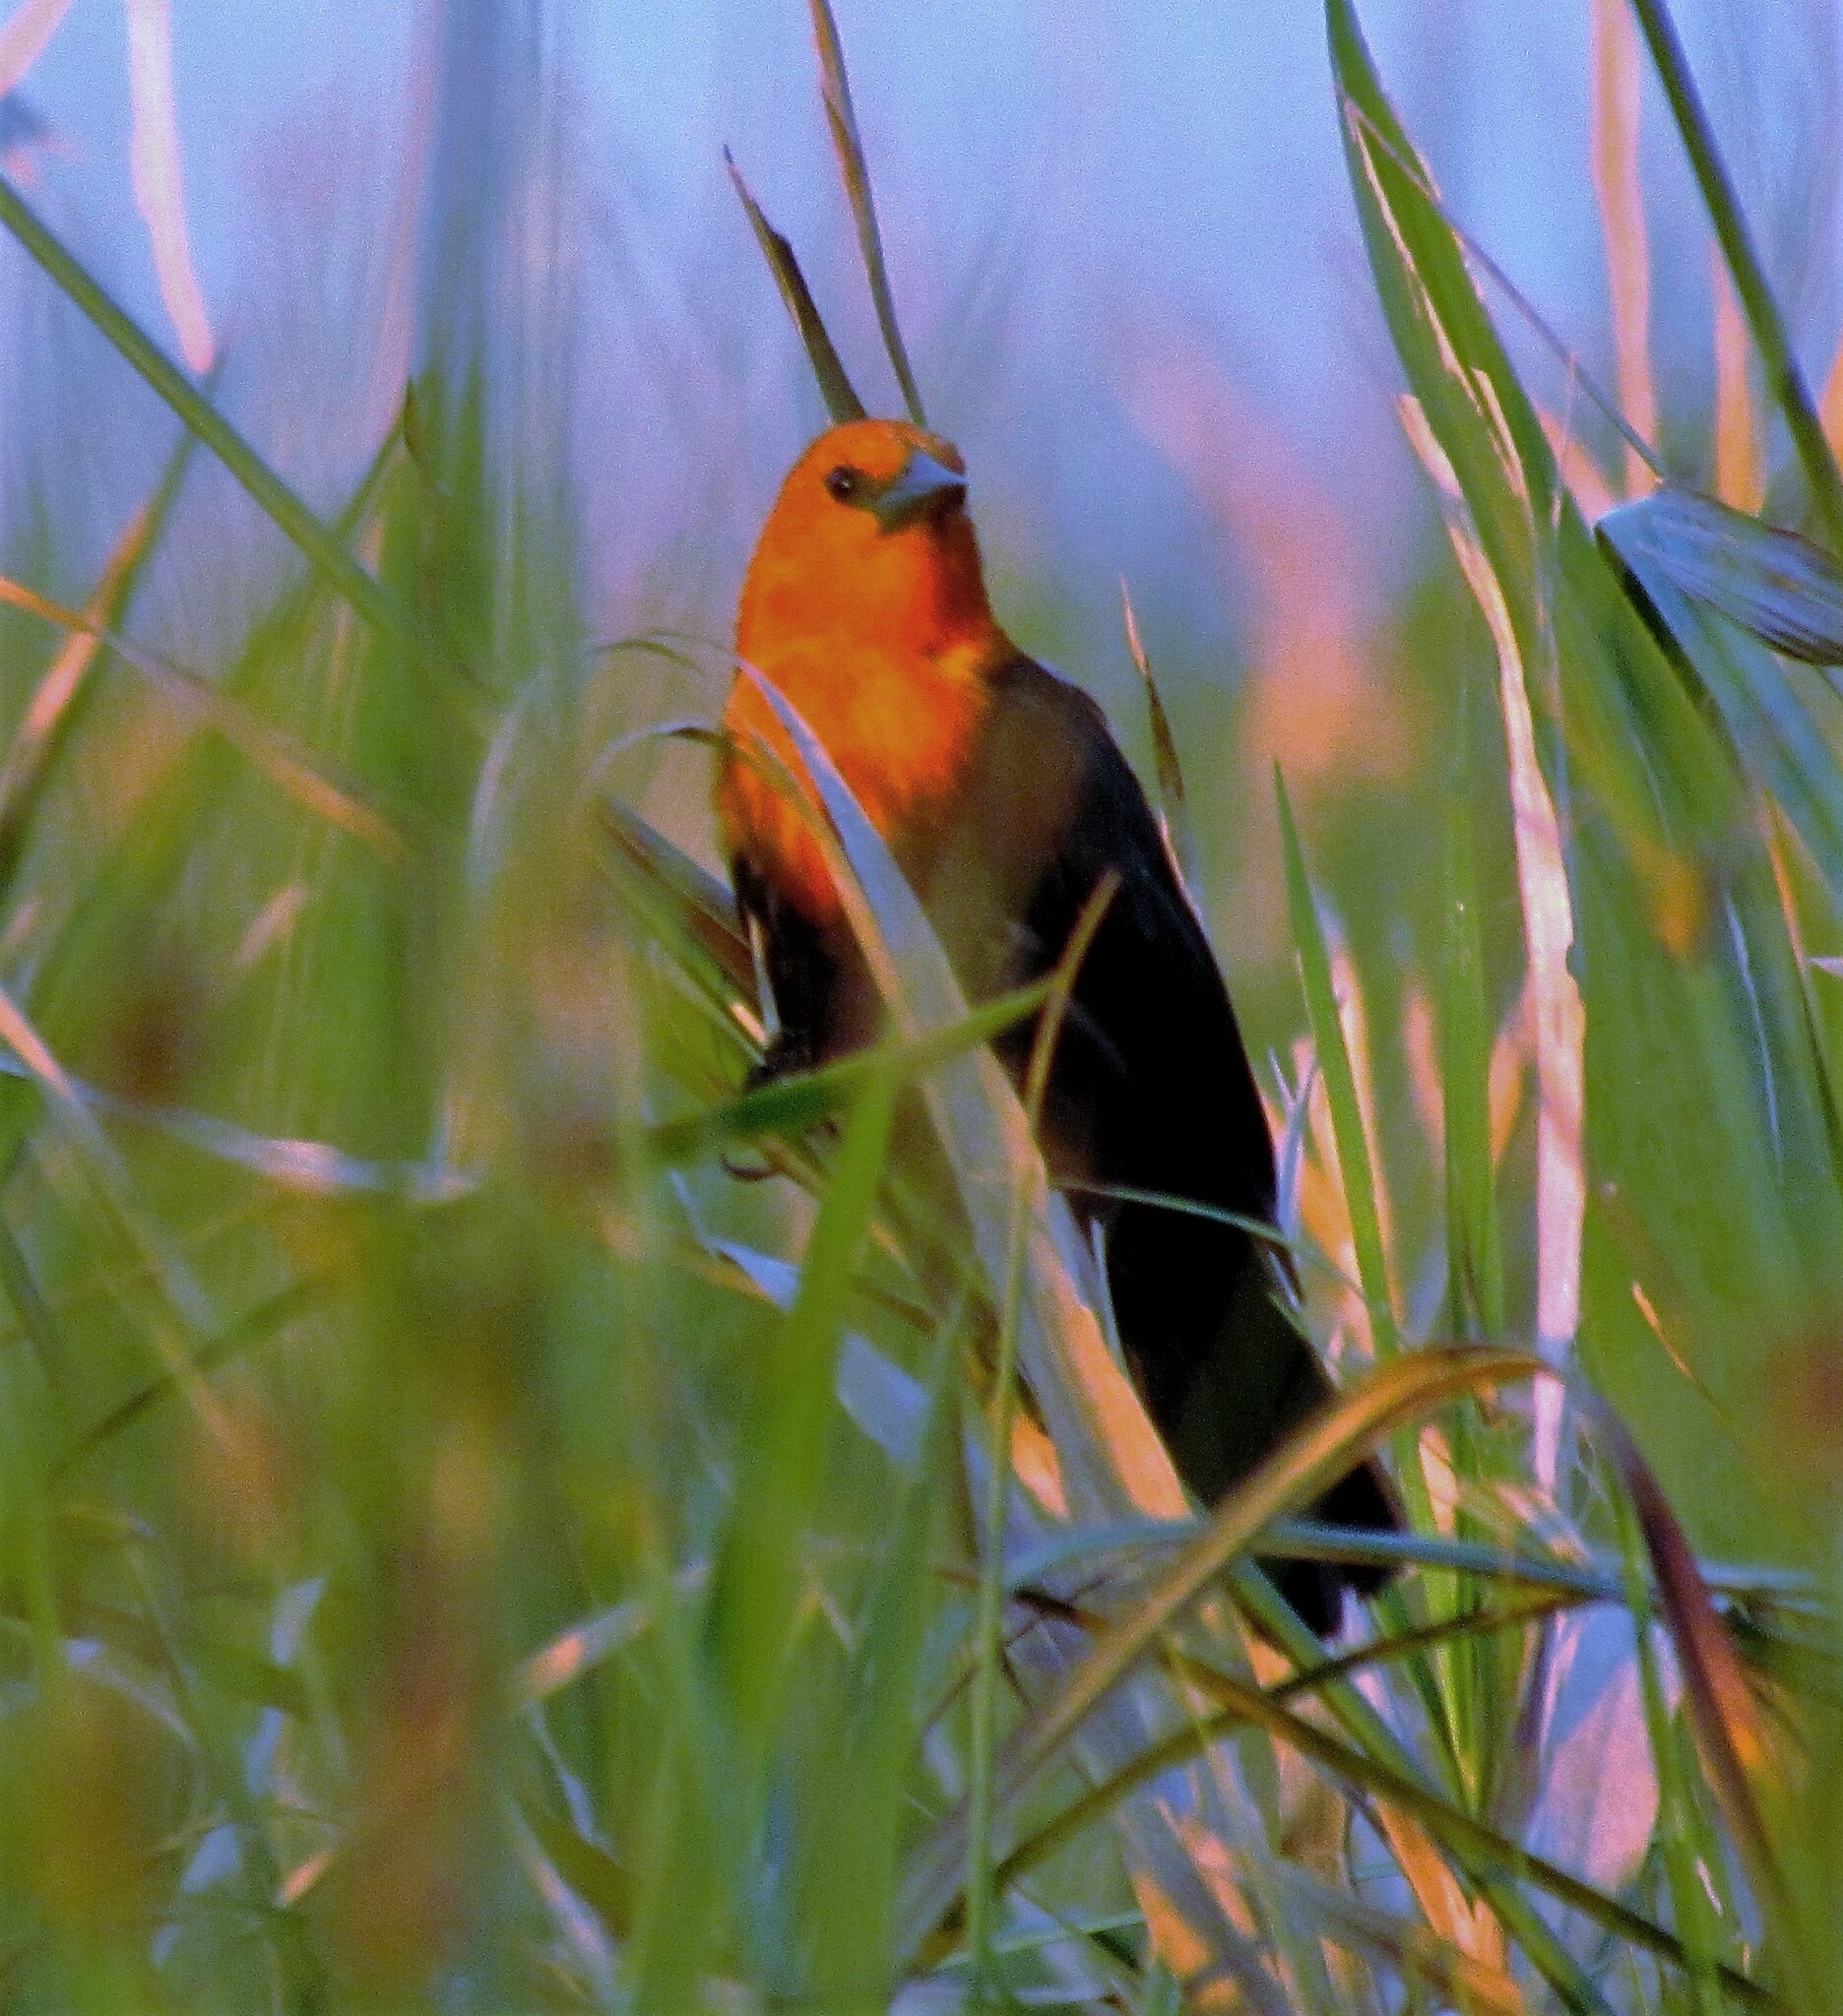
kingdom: Animalia
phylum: Chordata
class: Aves
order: Passeriformes
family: Icteridae
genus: Amblyramphus
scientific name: Amblyramphus holosericeus
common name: Scarlet-headed blackbird
